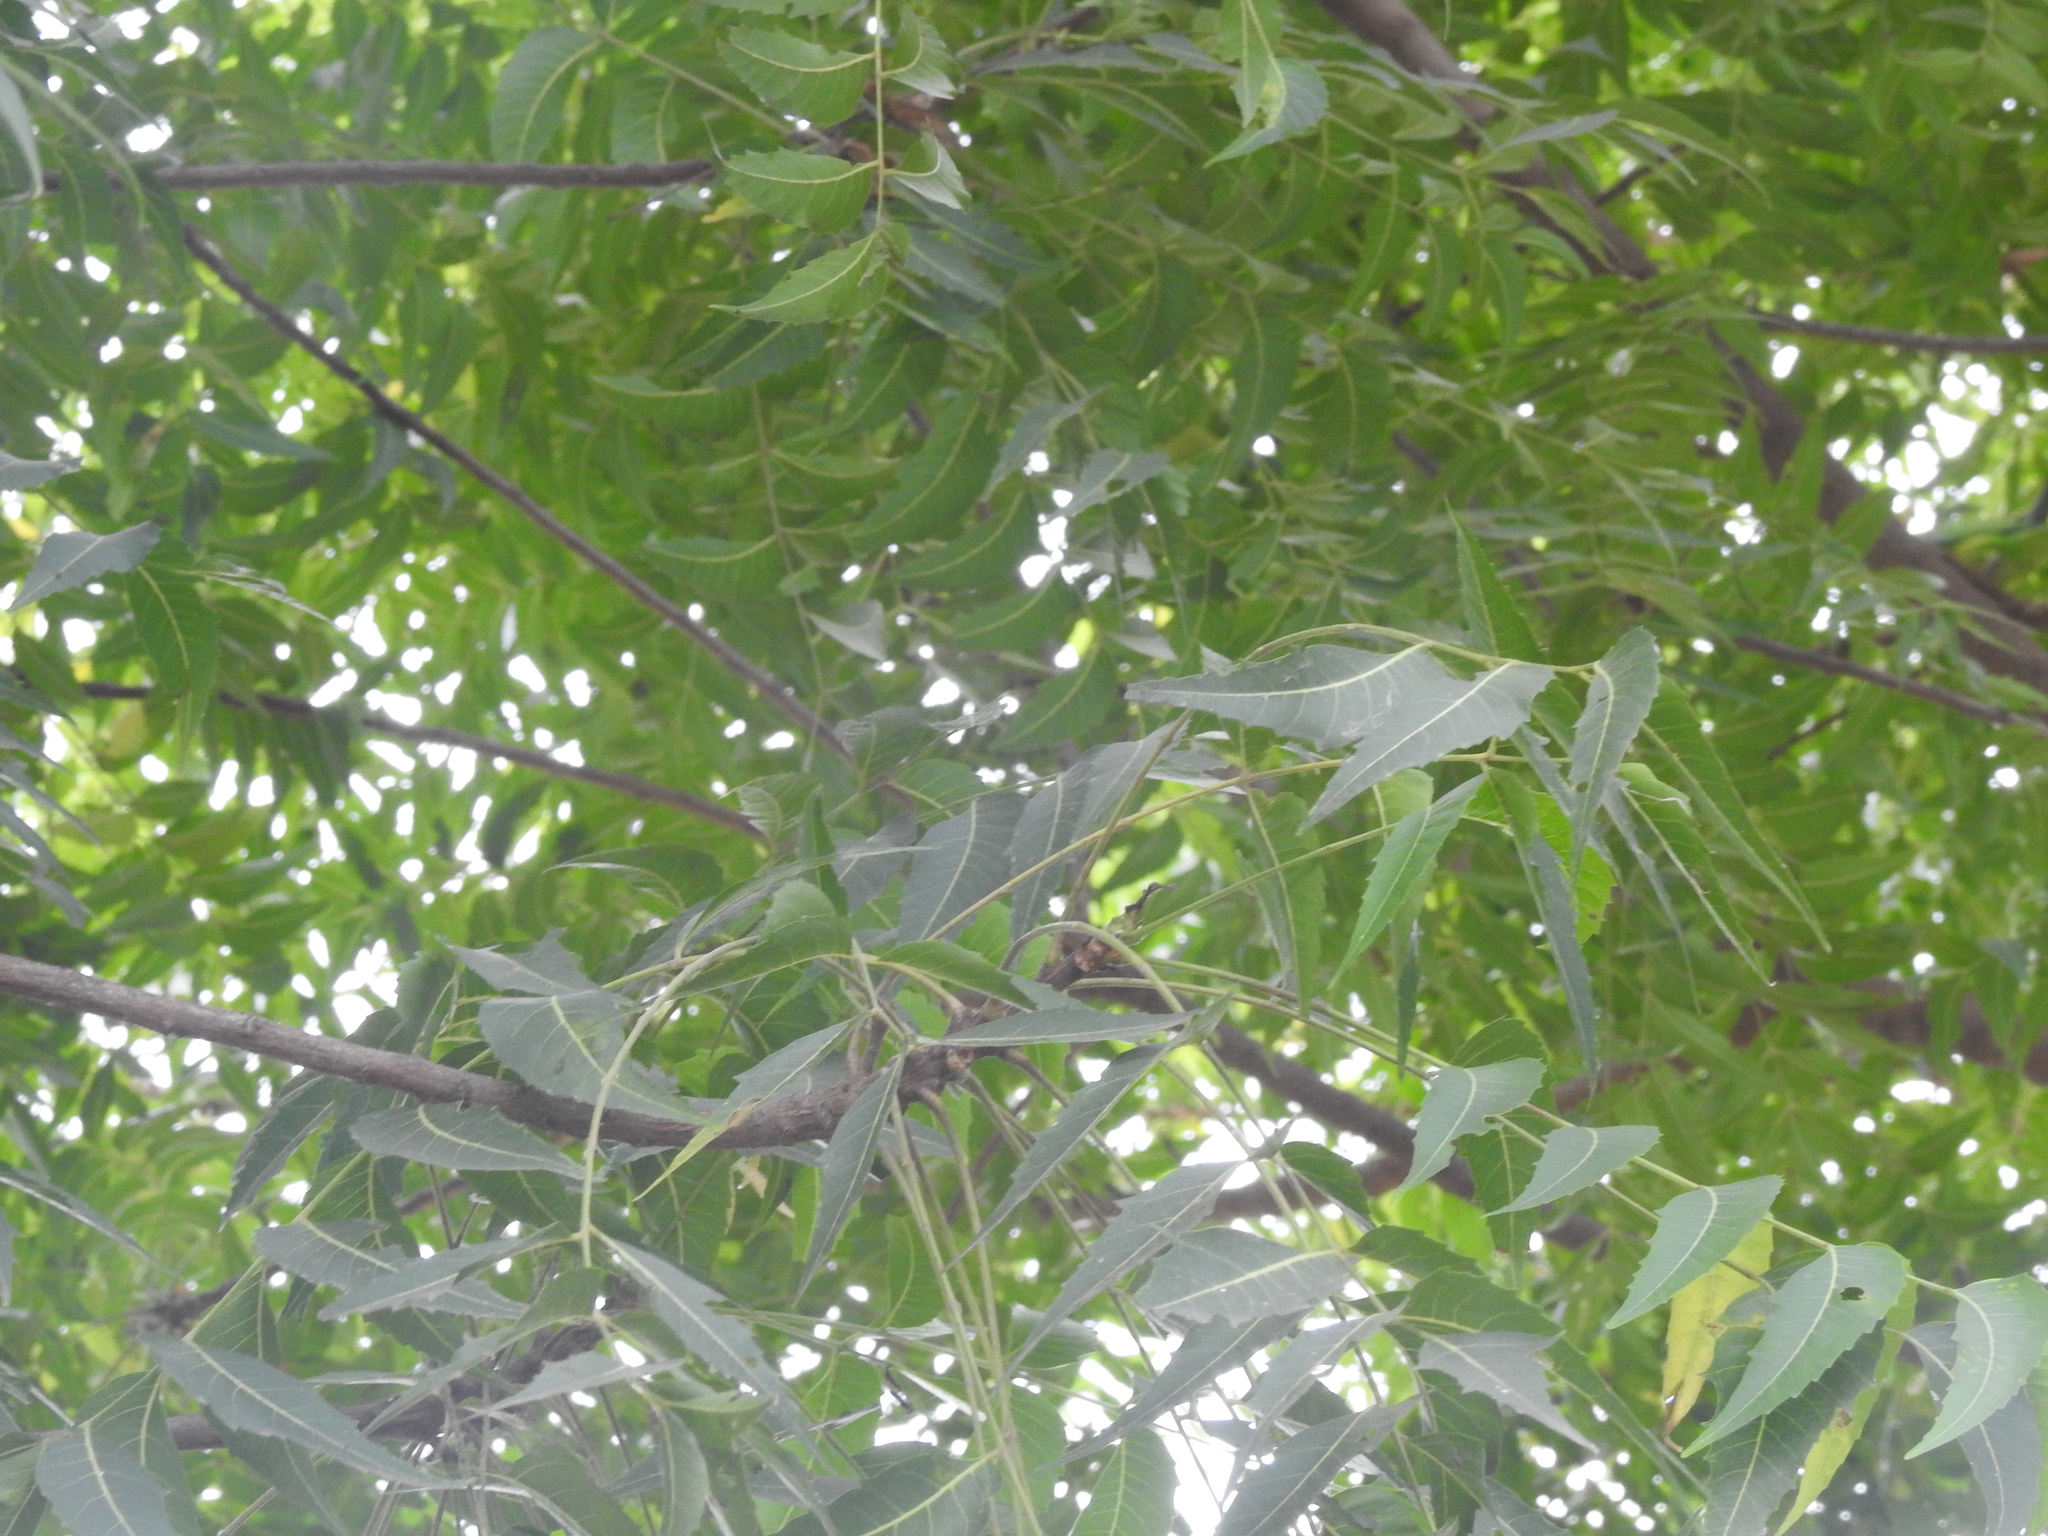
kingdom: Plantae
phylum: Tracheophyta
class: Magnoliopsida
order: Sapindales
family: Meliaceae
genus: Azadirachta
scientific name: Azadirachta indica
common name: Neem
